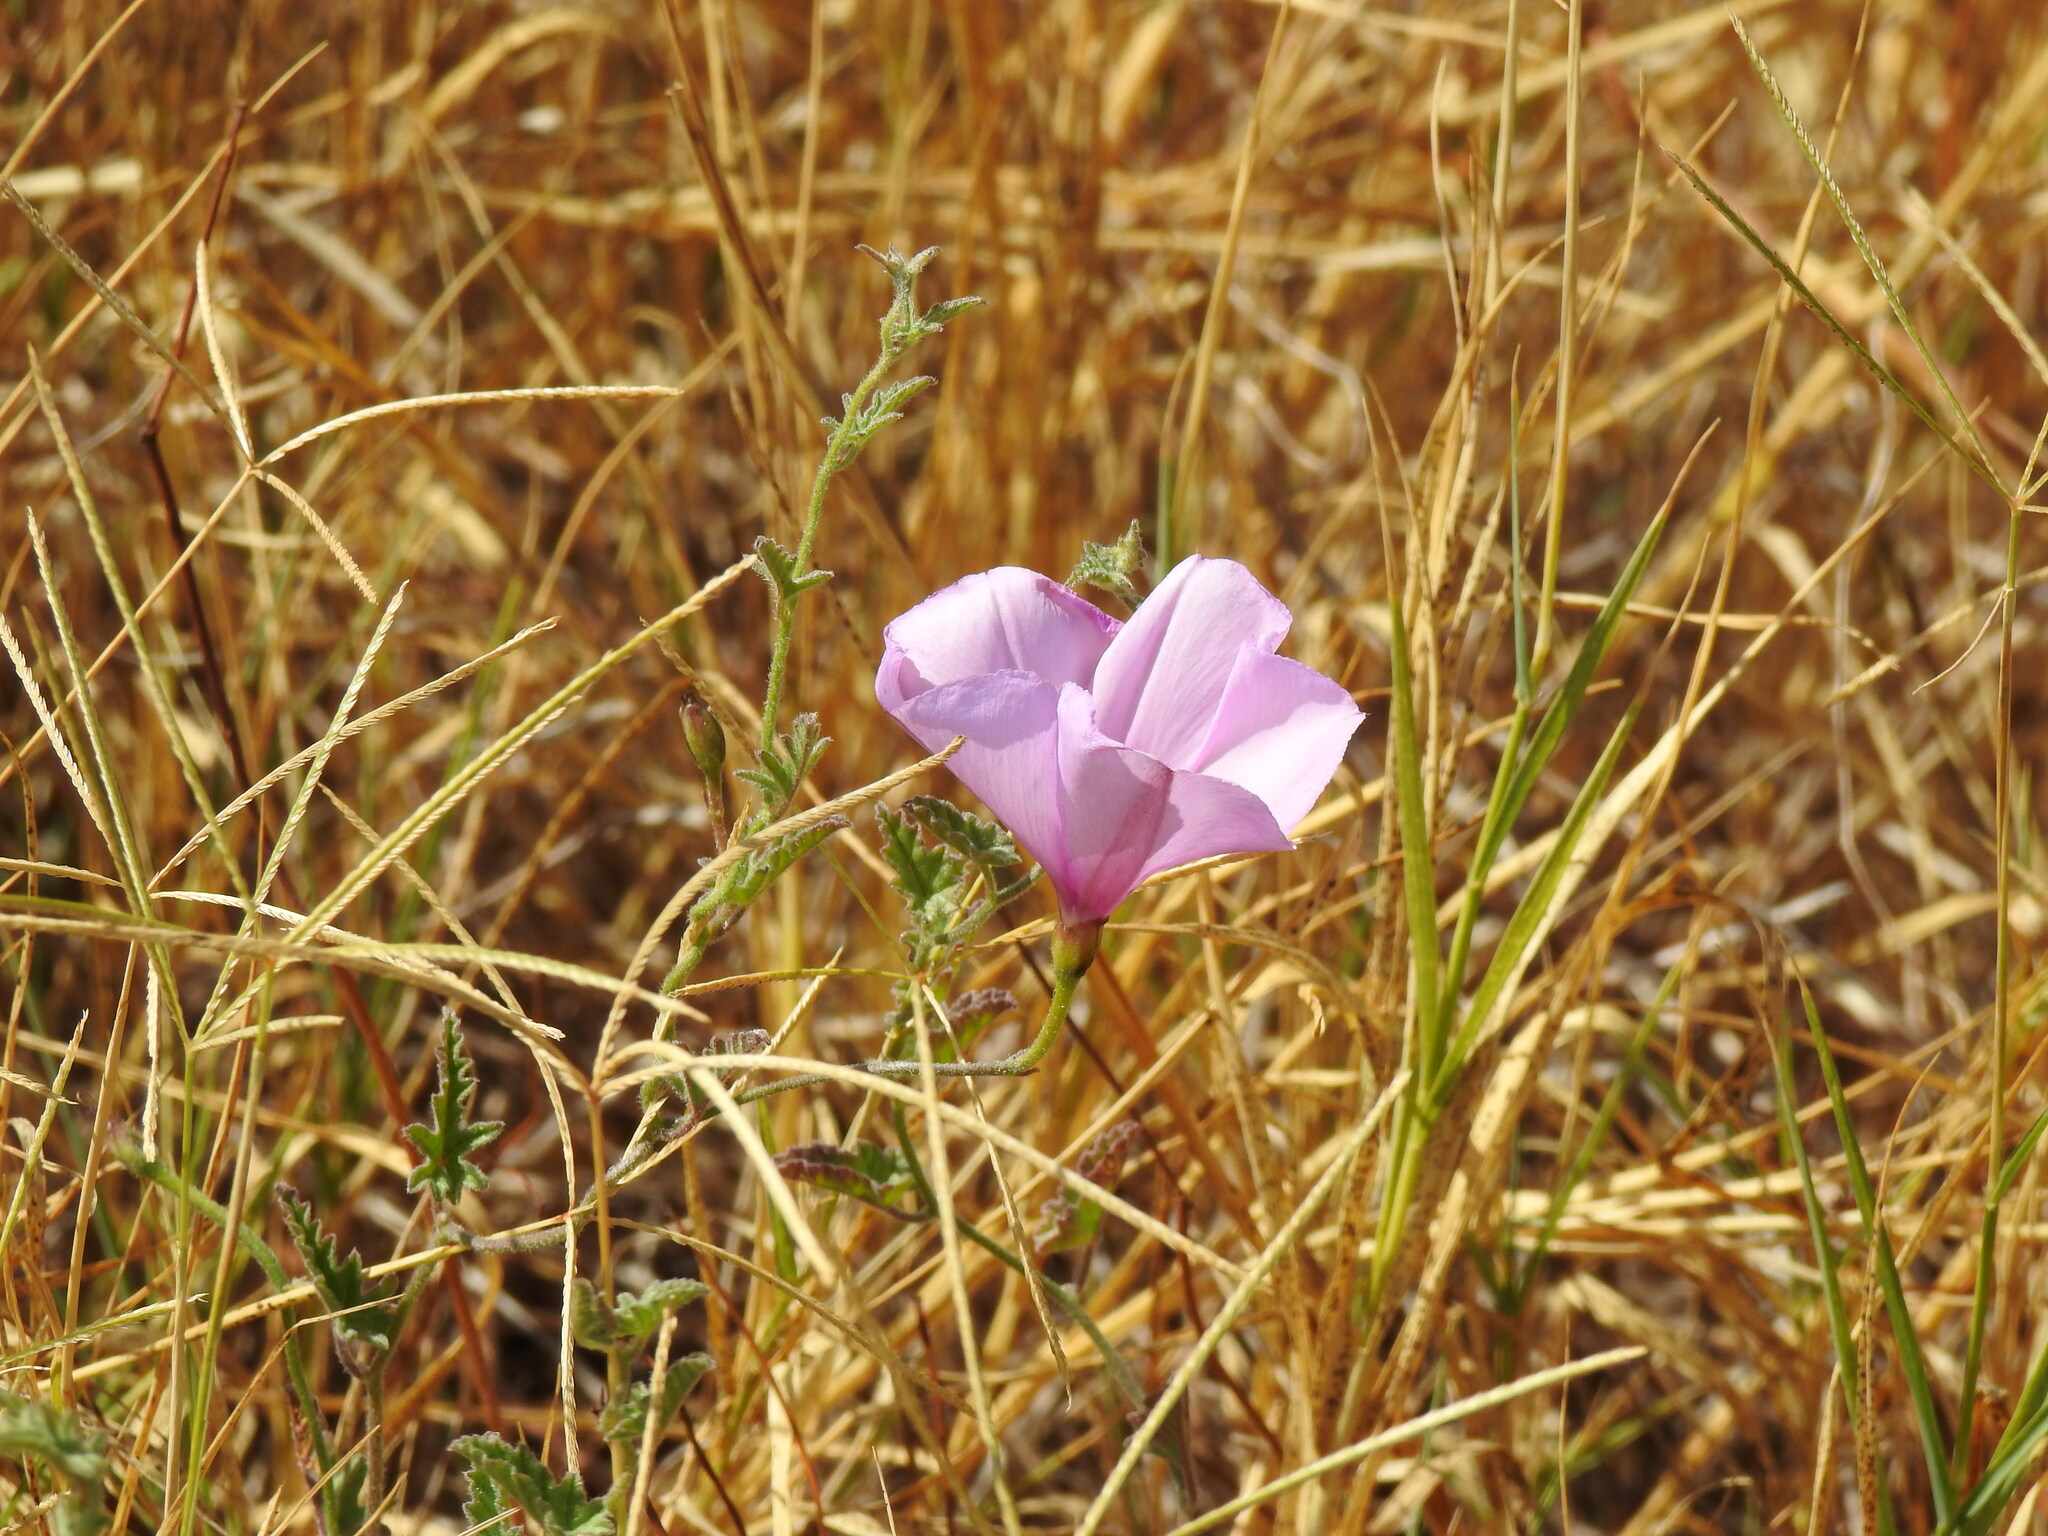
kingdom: Plantae
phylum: Tracheophyta
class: Magnoliopsida
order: Solanales
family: Convolvulaceae
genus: Convolvulus
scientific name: Convolvulus althaeoides
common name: Mallow bindweed
